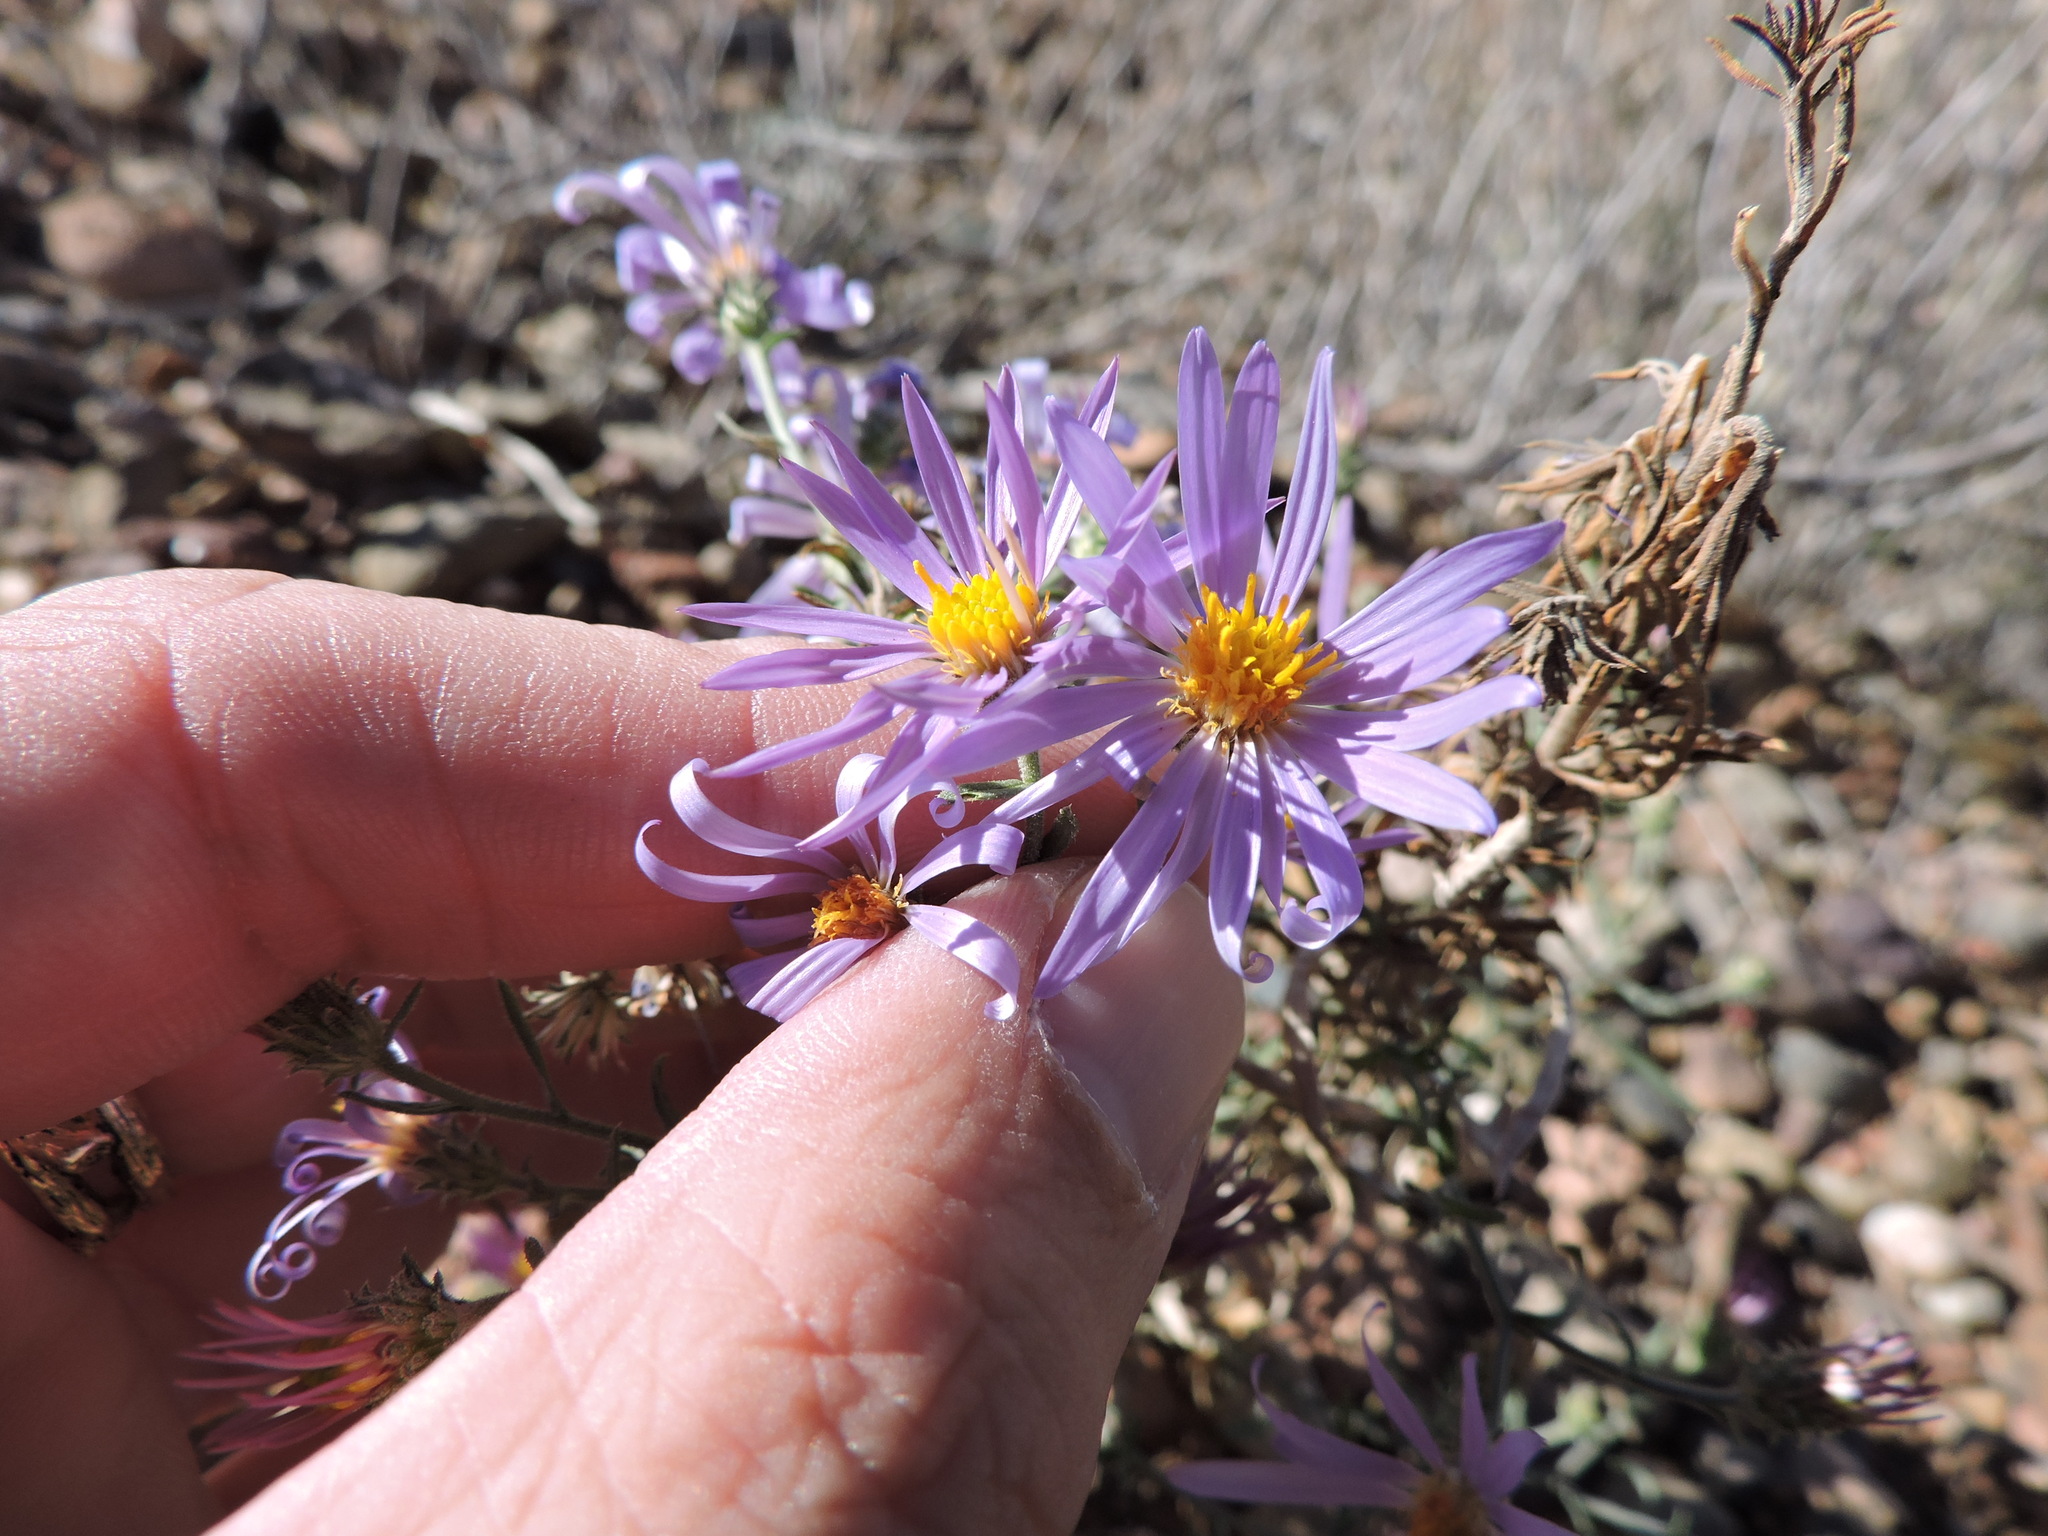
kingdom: Plantae
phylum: Tracheophyta
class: Magnoliopsida
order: Asterales
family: Asteraceae
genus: Dieteria
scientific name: Dieteria canescens
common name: Hoary-aster
